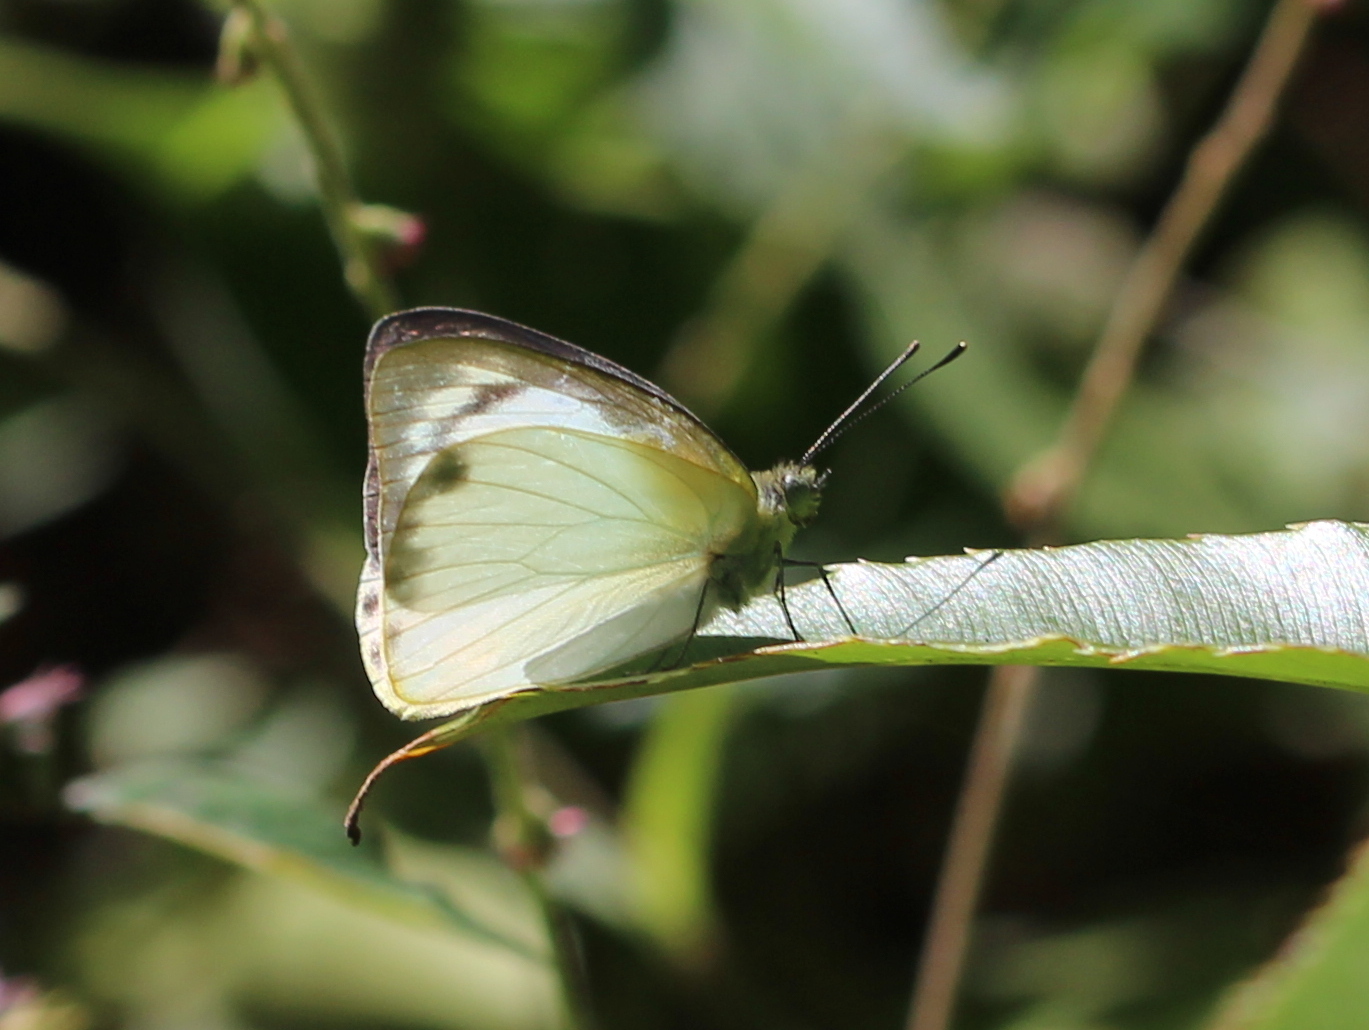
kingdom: Animalia
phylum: Arthropoda
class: Insecta
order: Lepidoptera
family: Pieridae
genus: Appias
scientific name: Appias albina
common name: Common albatross
